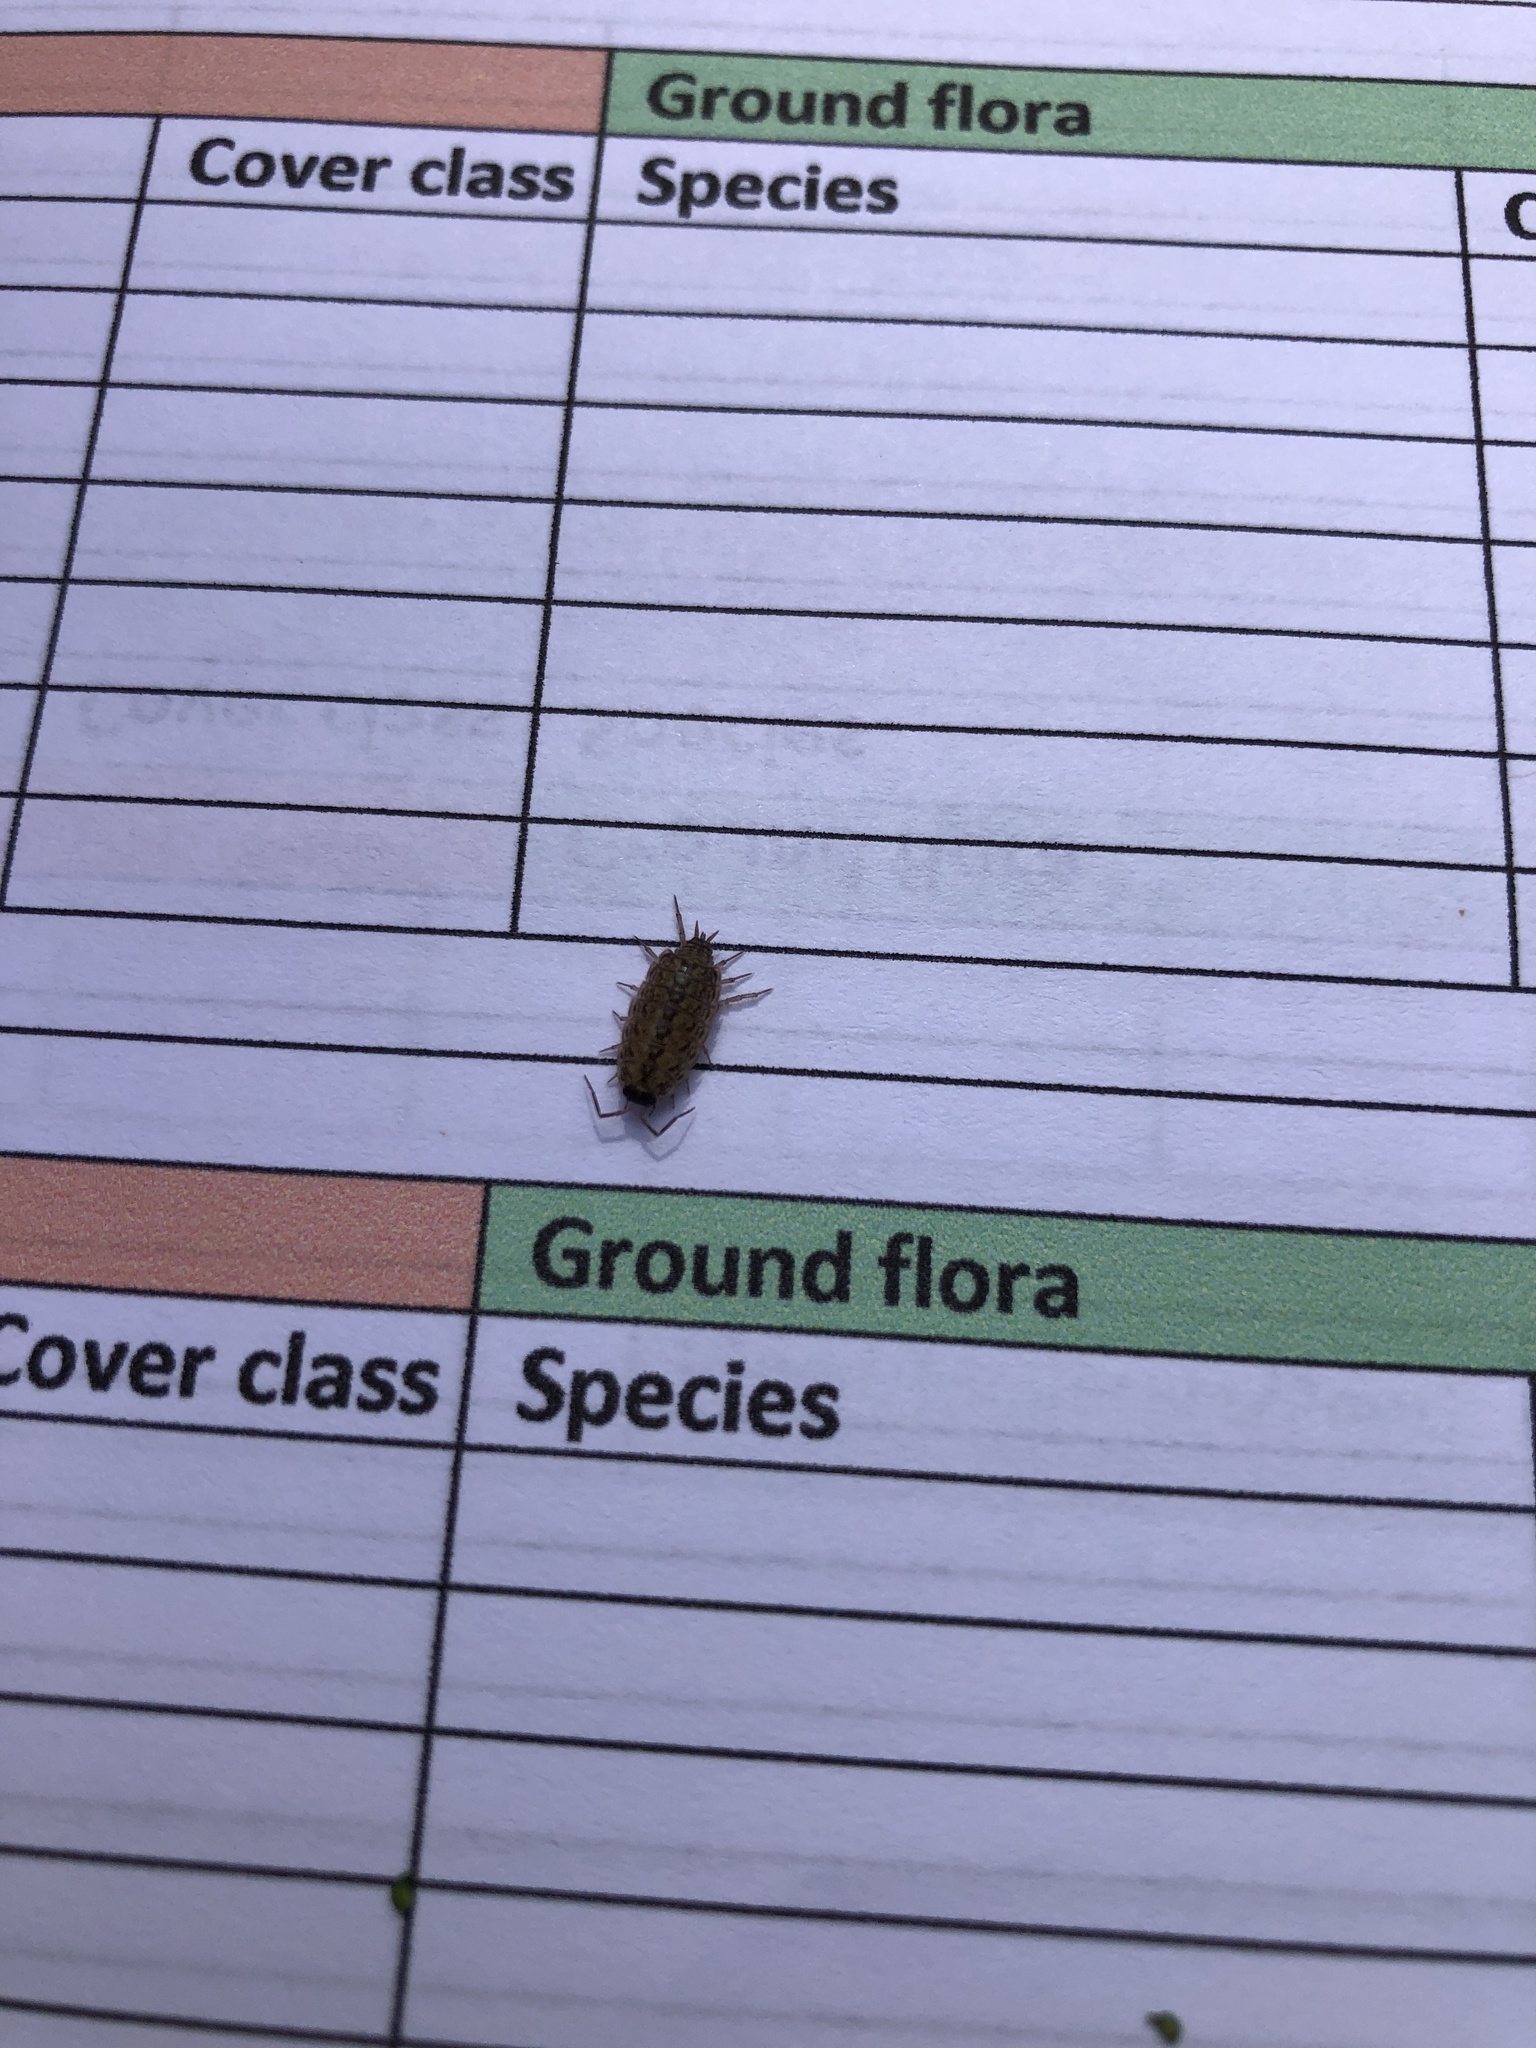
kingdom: Animalia
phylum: Arthropoda
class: Malacostraca
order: Isopoda
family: Philosciidae
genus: Philoscia
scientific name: Philoscia muscorum
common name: Common striped woodlouse
